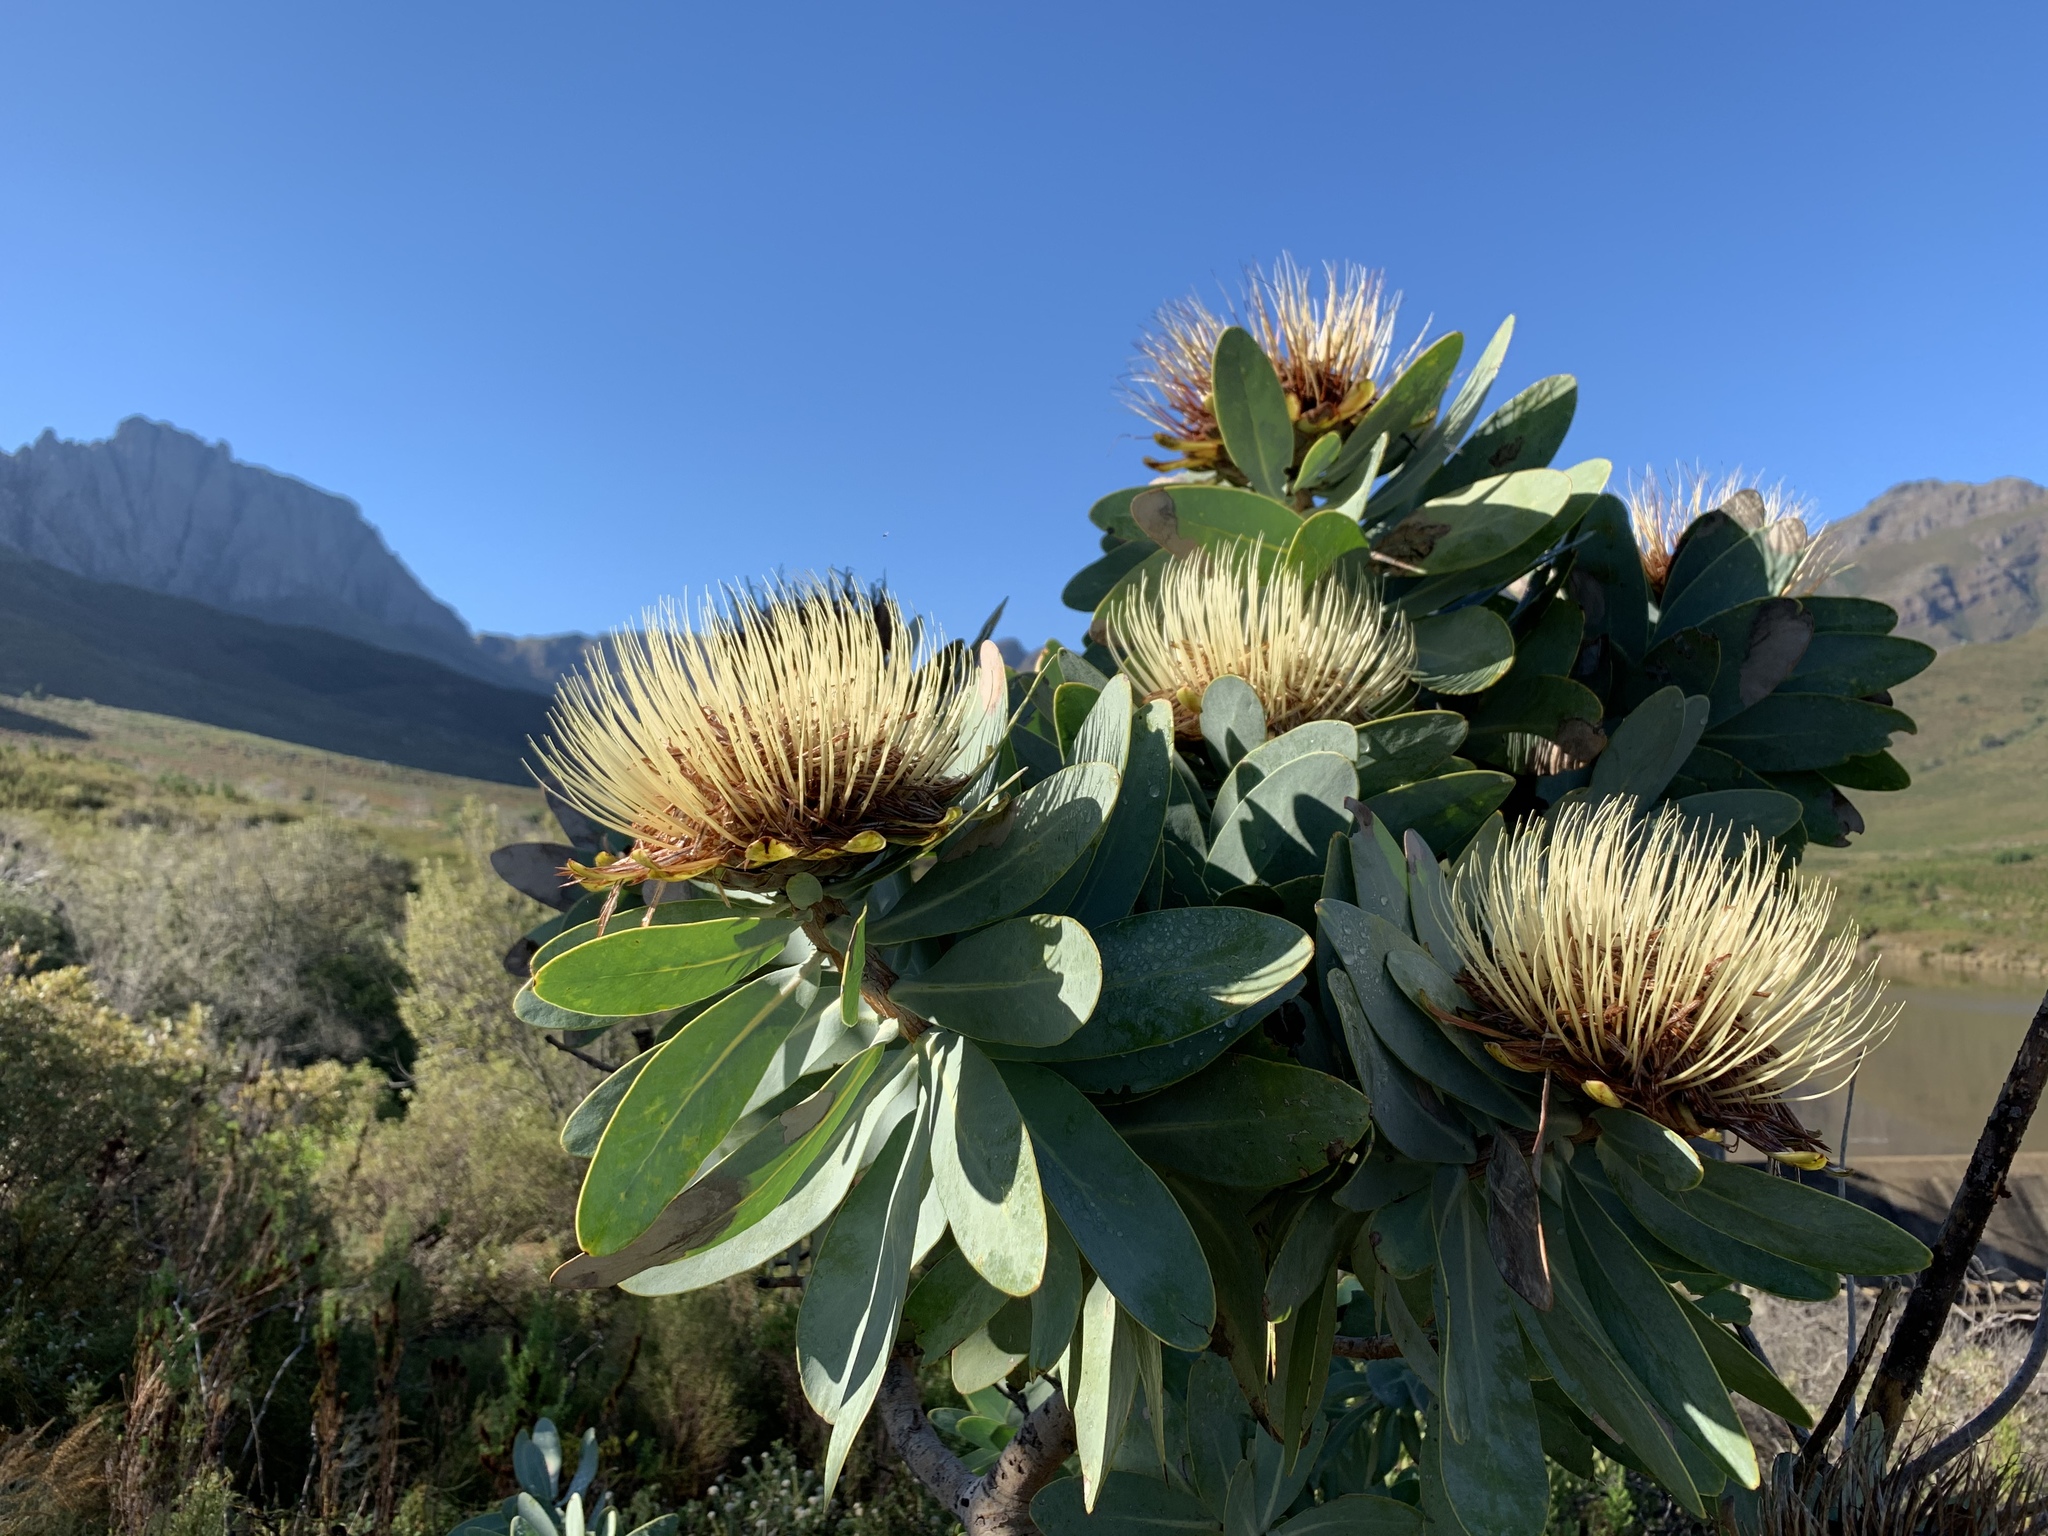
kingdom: Plantae
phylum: Tracheophyta
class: Magnoliopsida
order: Proteales
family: Proteaceae
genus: Protea
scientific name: Protea nitida
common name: Tree protea
